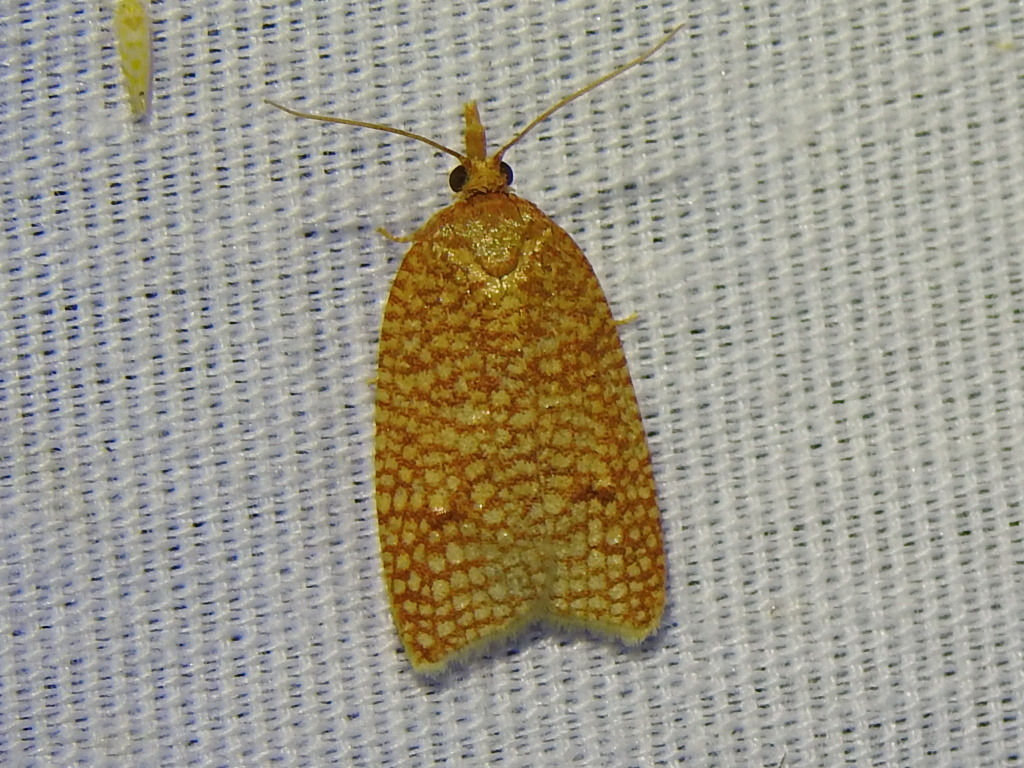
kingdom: Animalia
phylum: Arthropoda
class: Insecta
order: Lepidoptera
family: Tortricidae
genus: Sparganothis
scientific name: Sparganothis caryae
